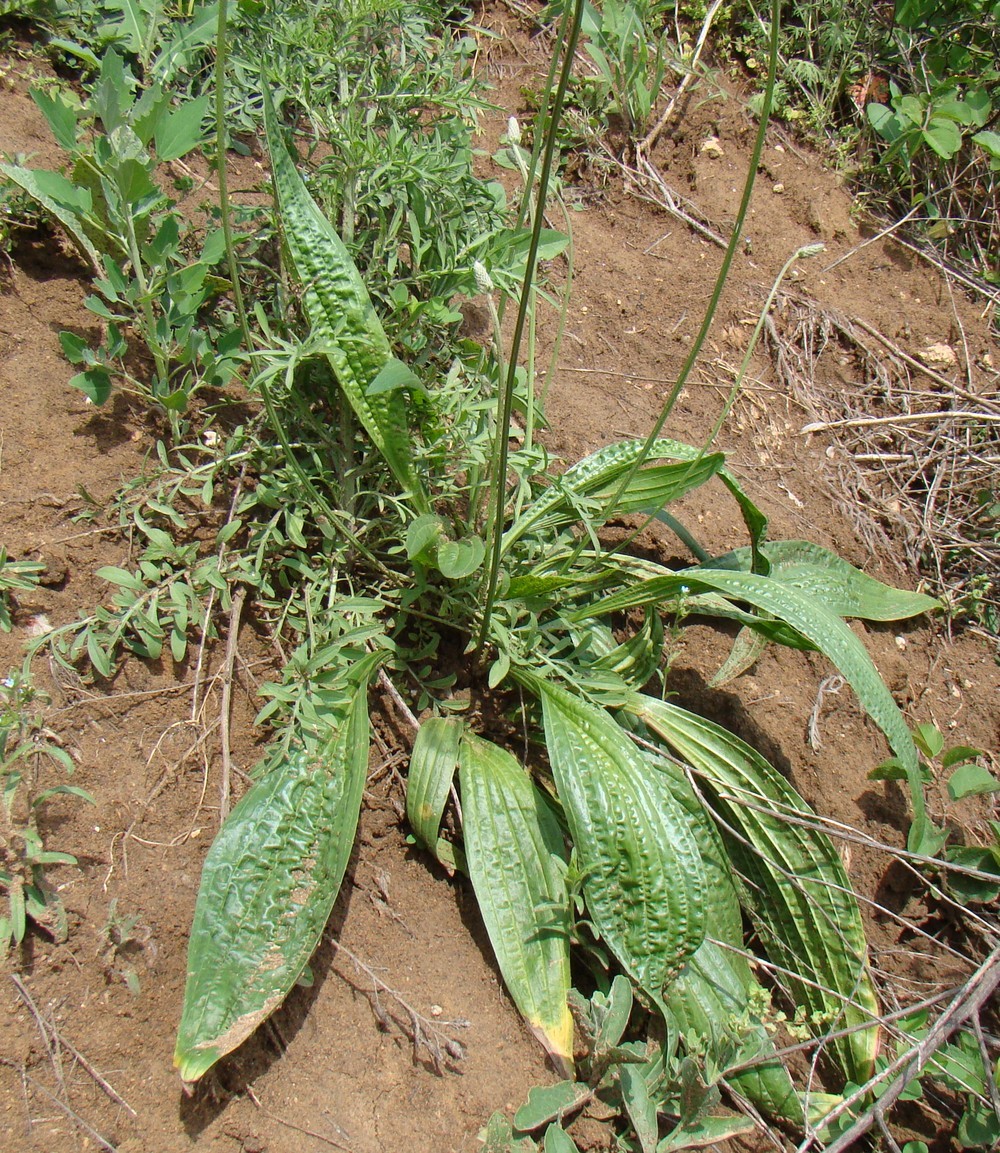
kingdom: Plantae
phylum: Tracheophyta
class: Magnoliopsida
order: Lamiales
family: Plantaginaceae
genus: Plantago
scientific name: Plantago lanceolata
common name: Ribwort plantain
